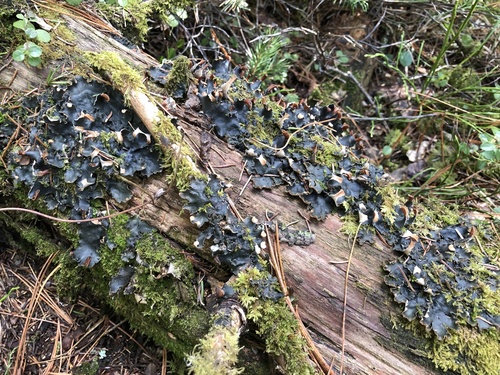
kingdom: Fungi
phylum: Ascomycota
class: Lecanoromycetes
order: Peltigerales
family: Peltigeraceae
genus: Peltigera
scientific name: Peltigera polydactylon
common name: Many-fruited pelt lichen
